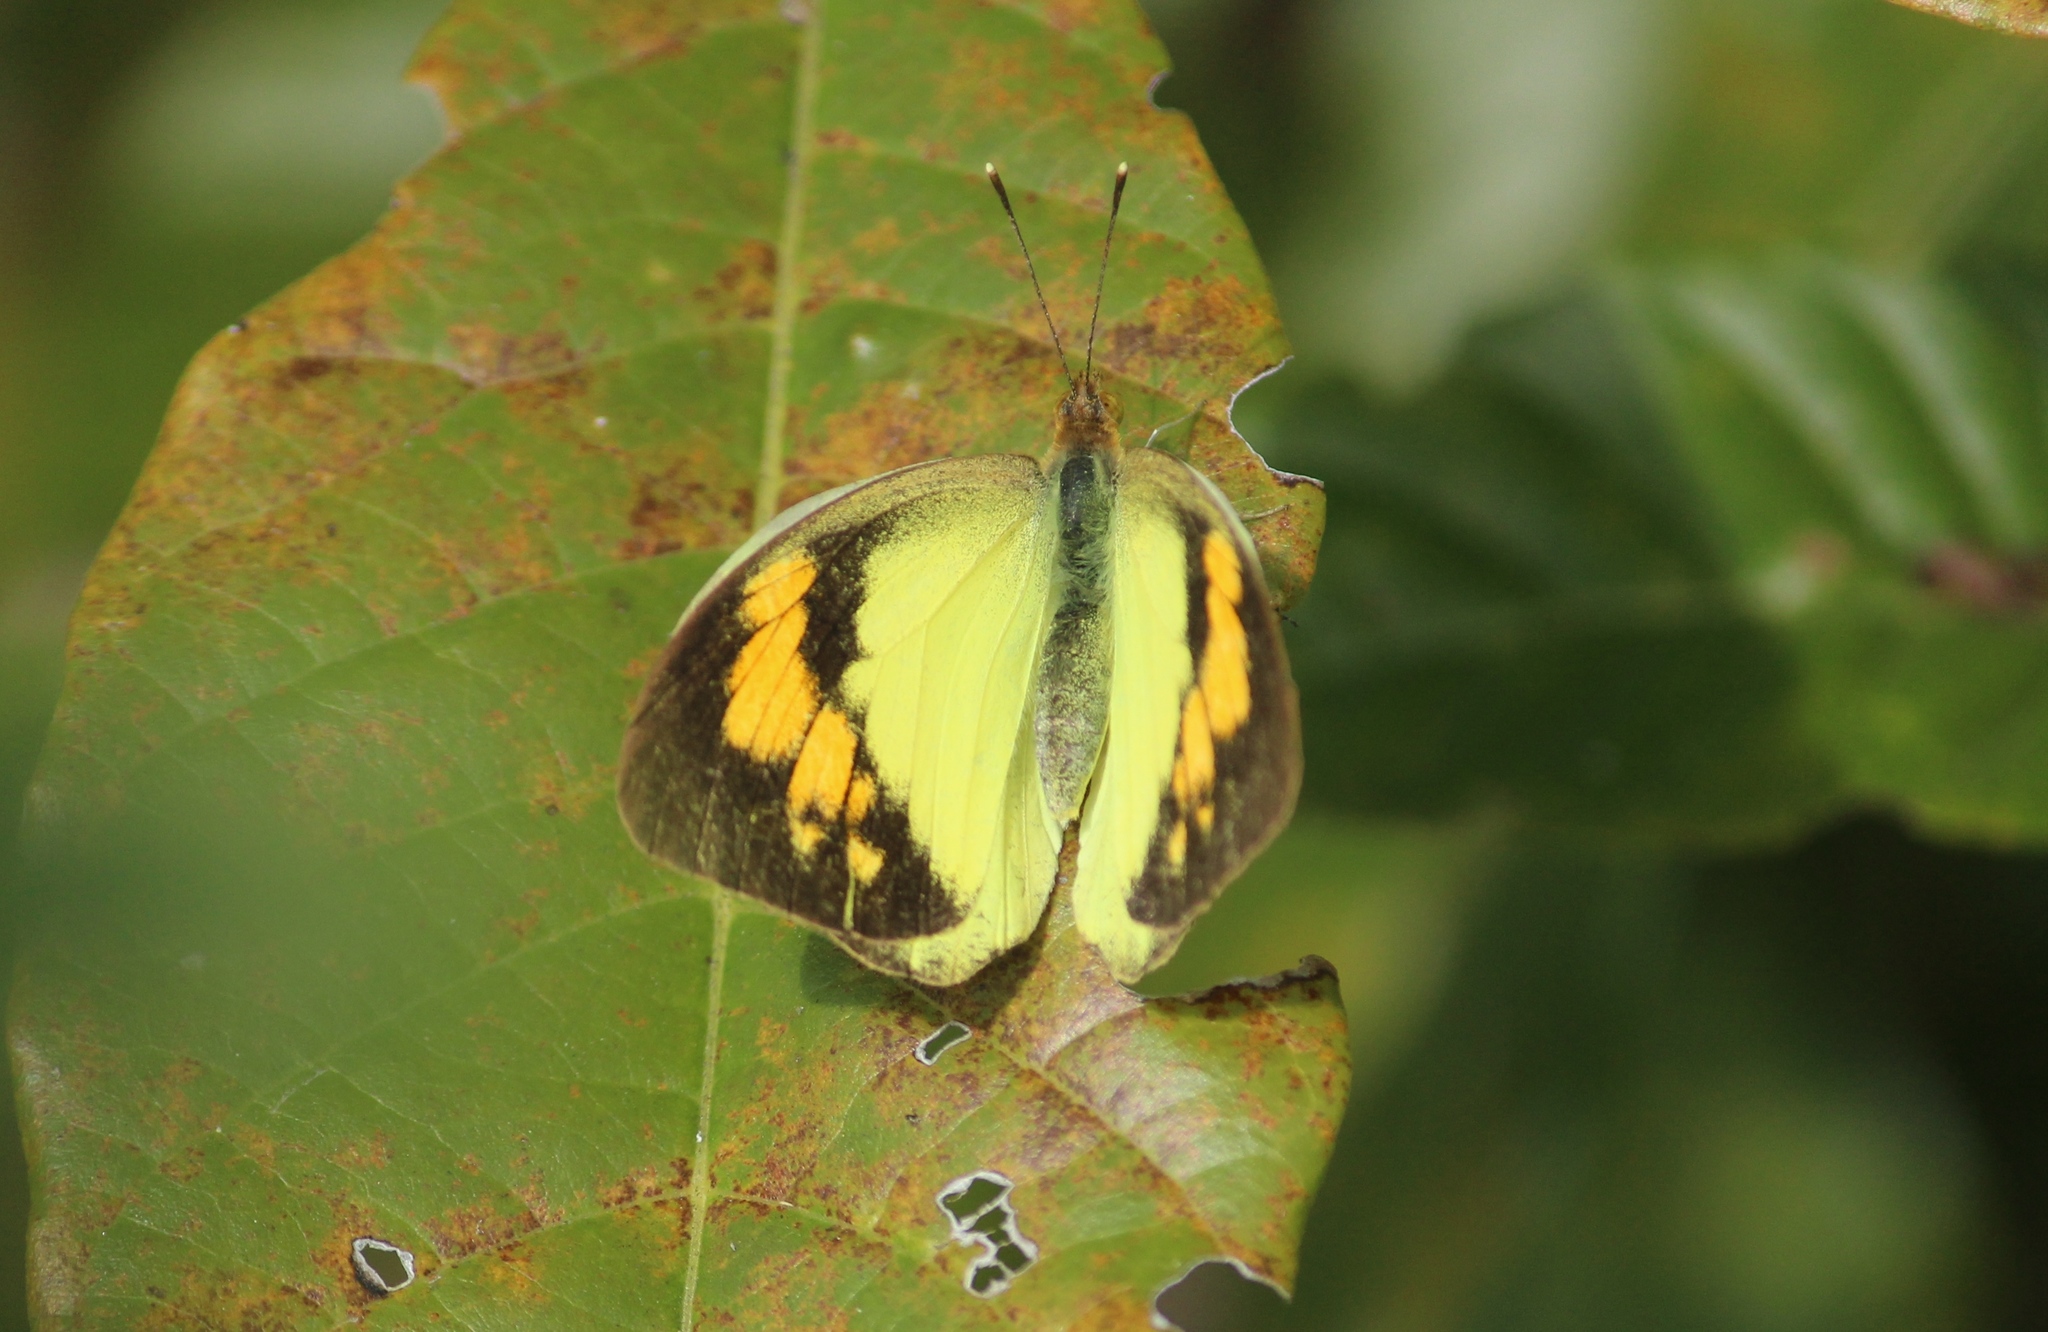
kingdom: Animalia
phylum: Arthropoda
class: Insecta
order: Lepidoptera
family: Pieridae
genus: Ixias
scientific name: Ixias pyrene
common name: Yellow orange tip
